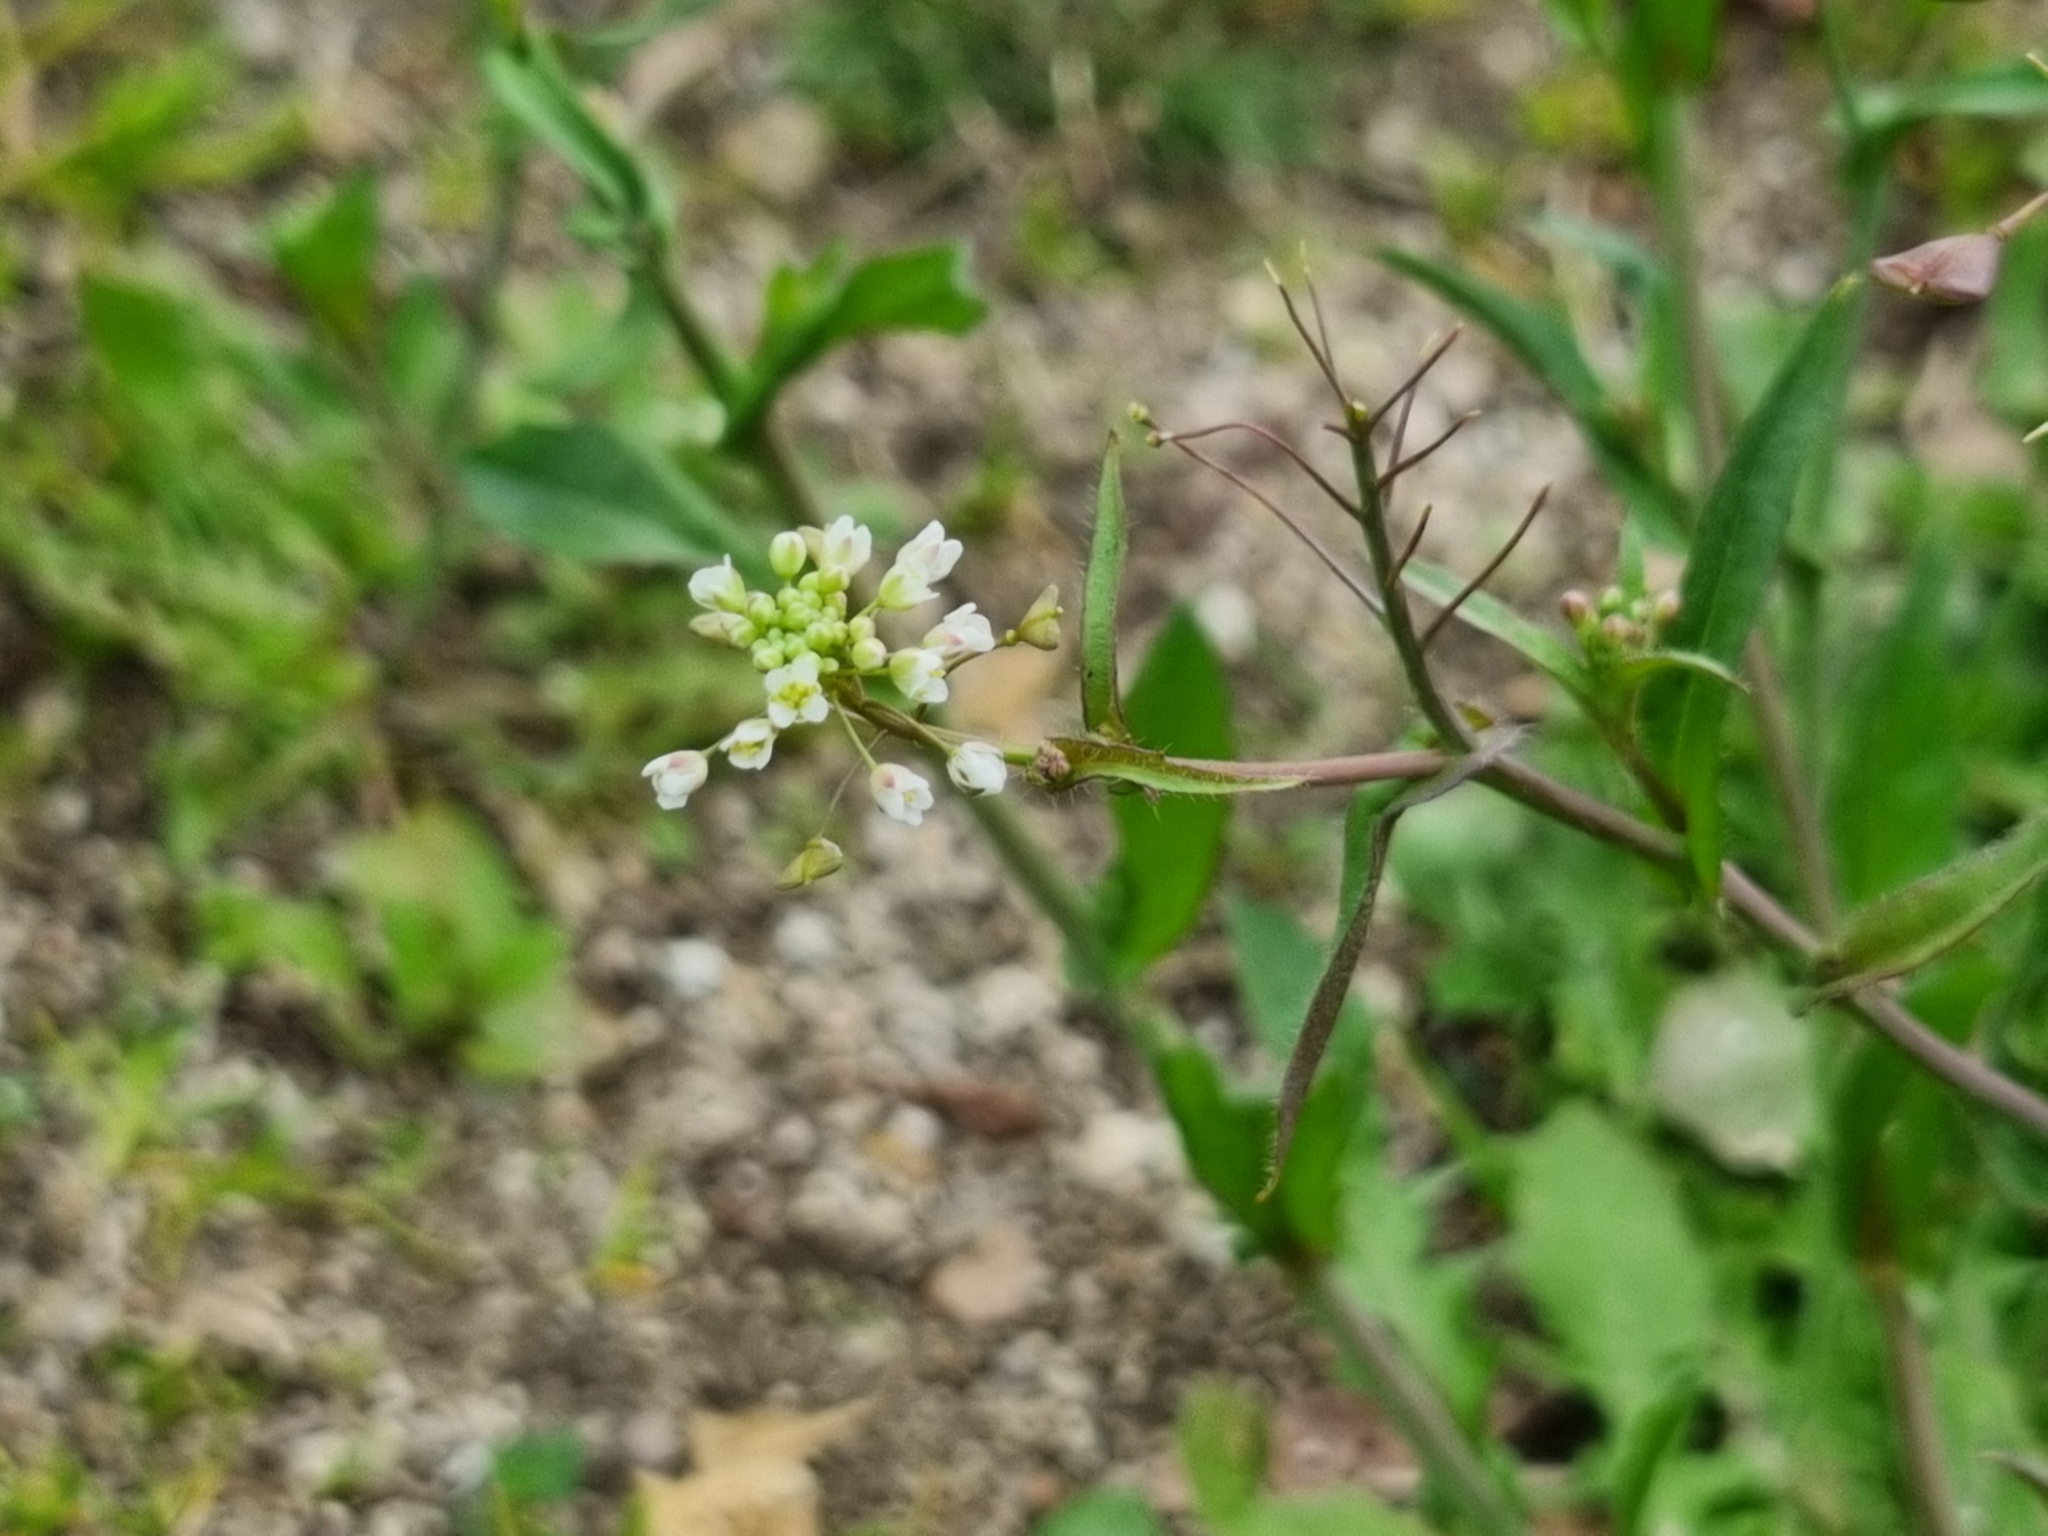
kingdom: Plantae
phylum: Tracheophyta
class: Magnoliopsida
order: Brassicales
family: Brassicaceae
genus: Capsella
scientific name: Capsella bursa-pastoris
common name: Shepherd's purse
